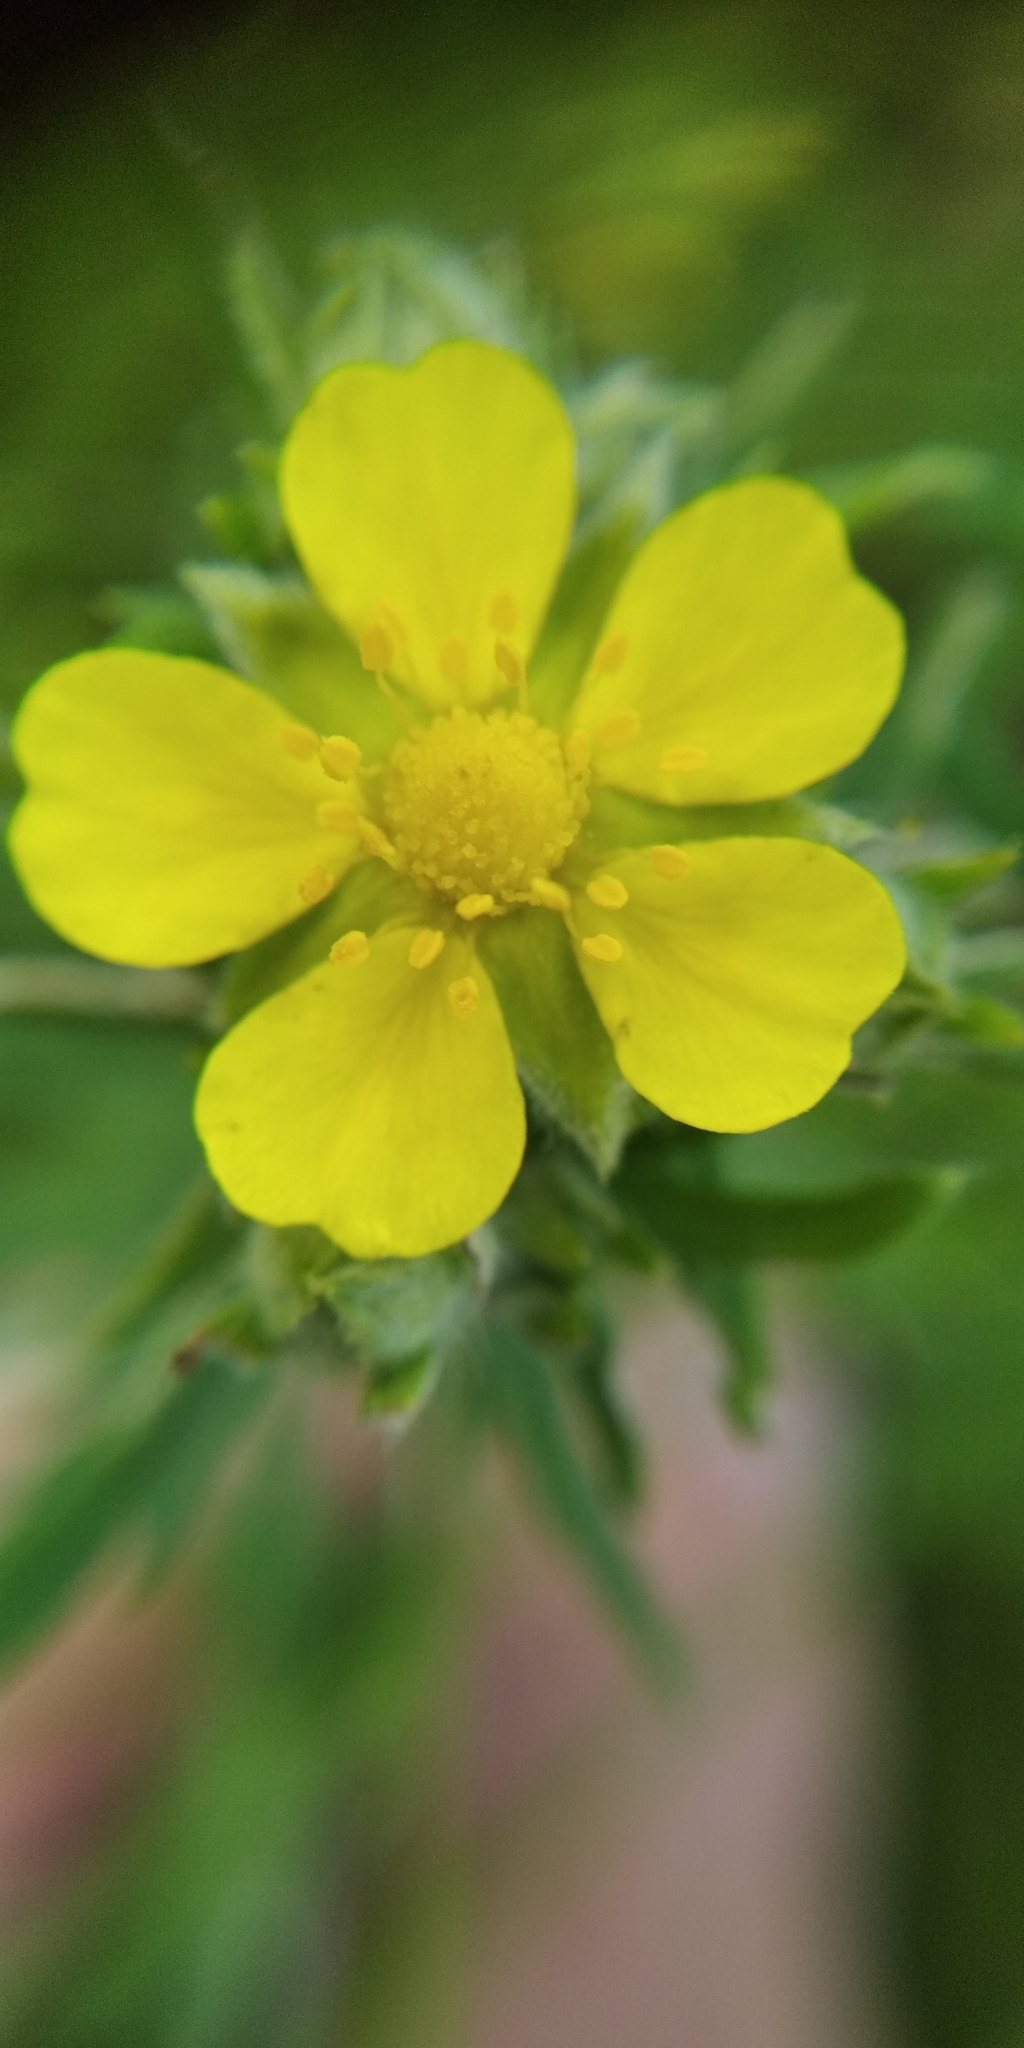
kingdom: Plantae
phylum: Tracheophyta
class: Magnoliopsida
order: Rosales
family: Rosaceae
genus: Potentilla
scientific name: Potentilla argentea
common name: Hoary cinquefoil
